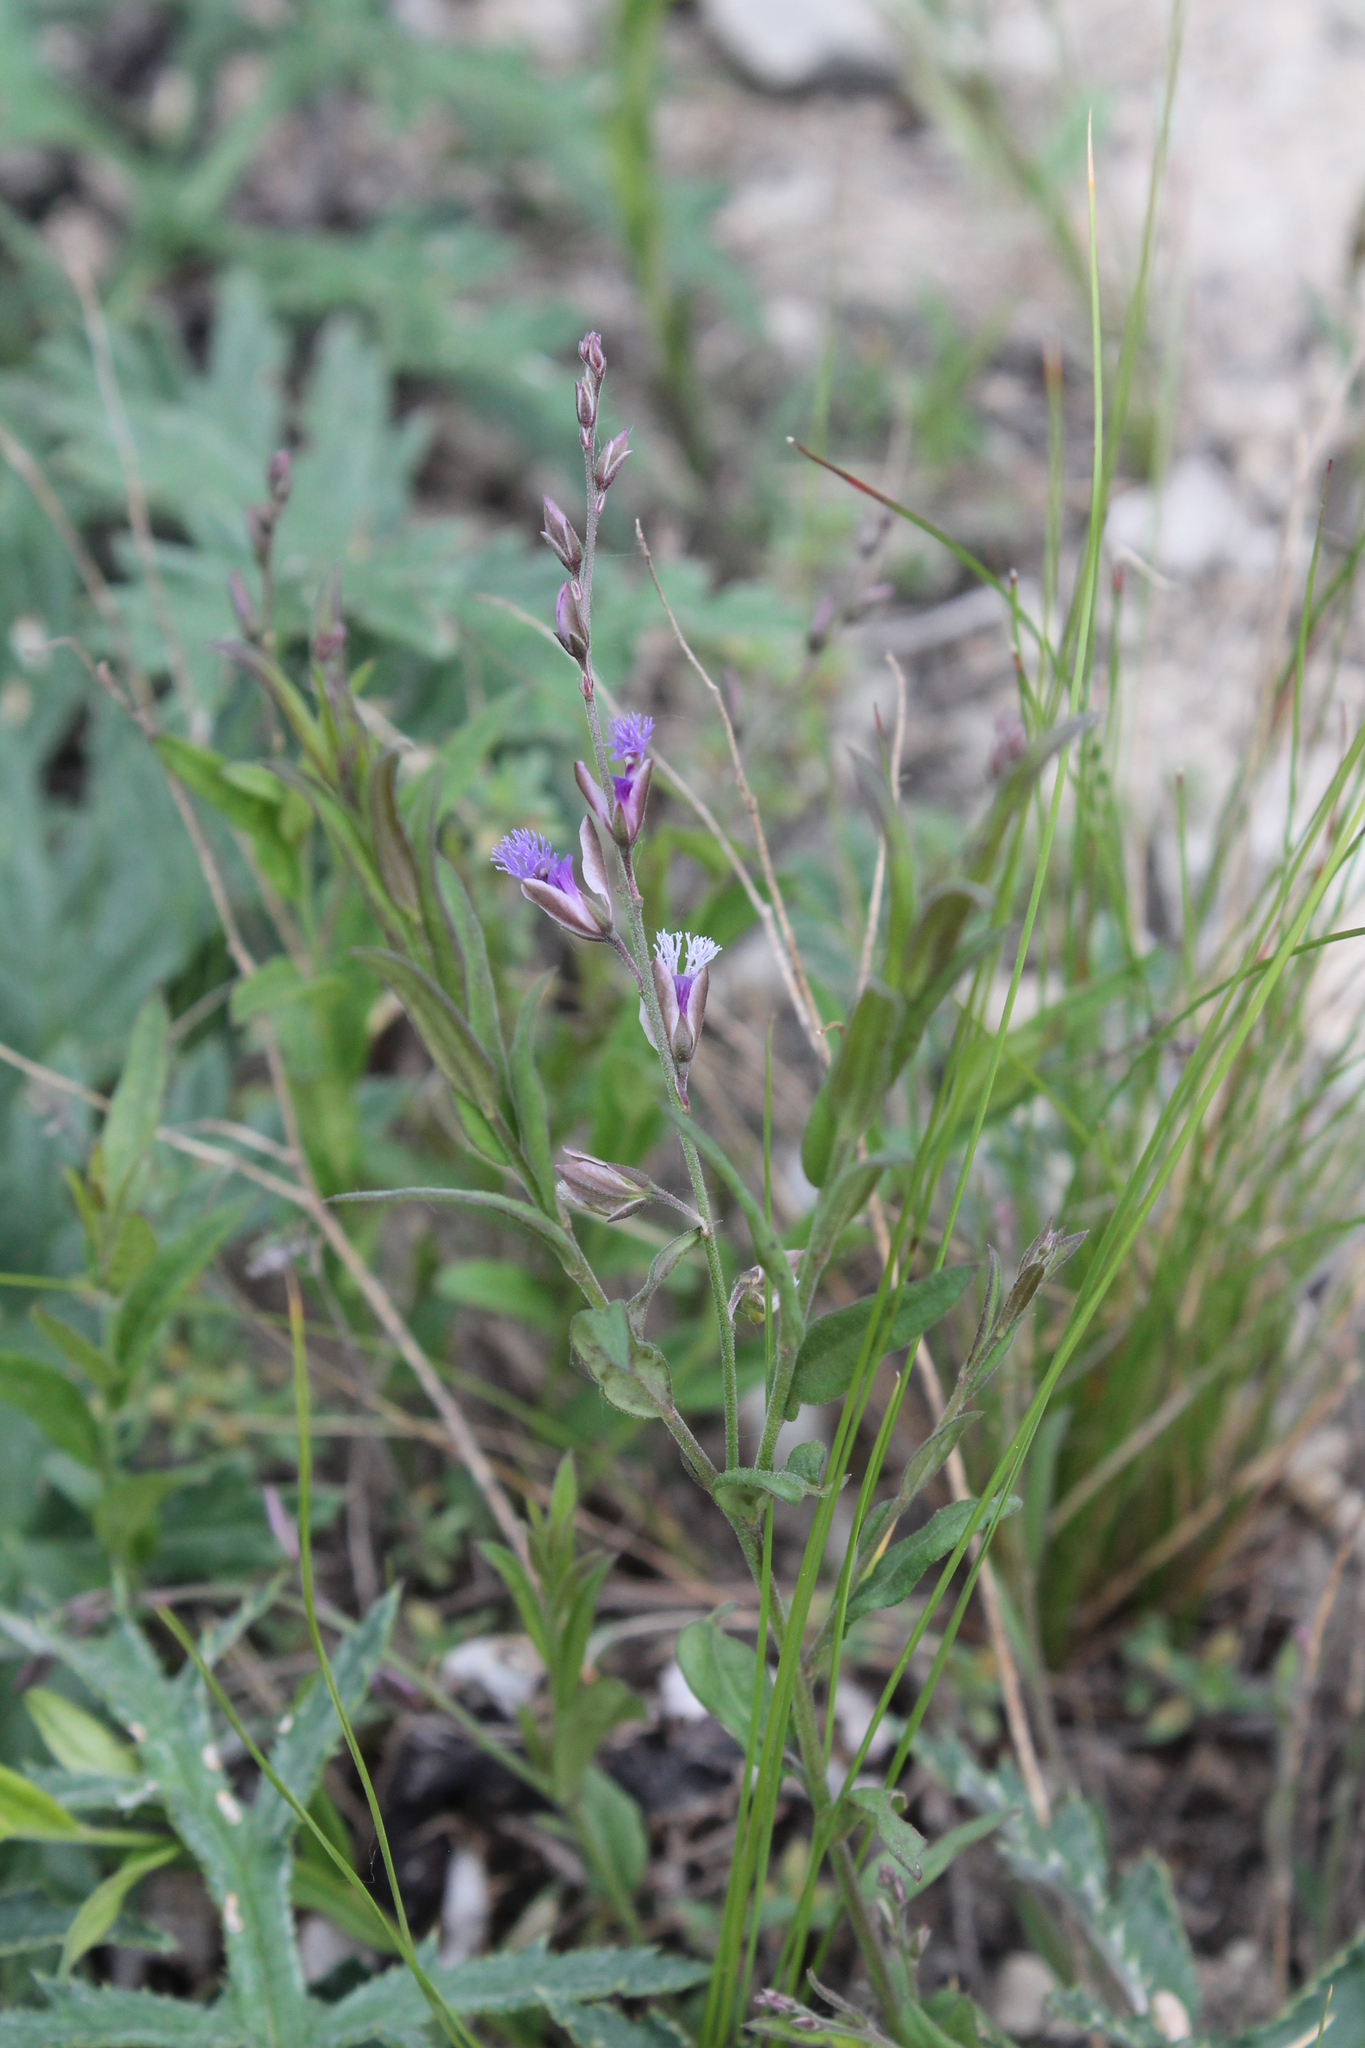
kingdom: Plantae
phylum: Tracheophyta
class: Magnoliopsida
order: Fabales
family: Polygalaceae
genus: Polygala
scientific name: Polygala sibirica
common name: Siberian polygala
